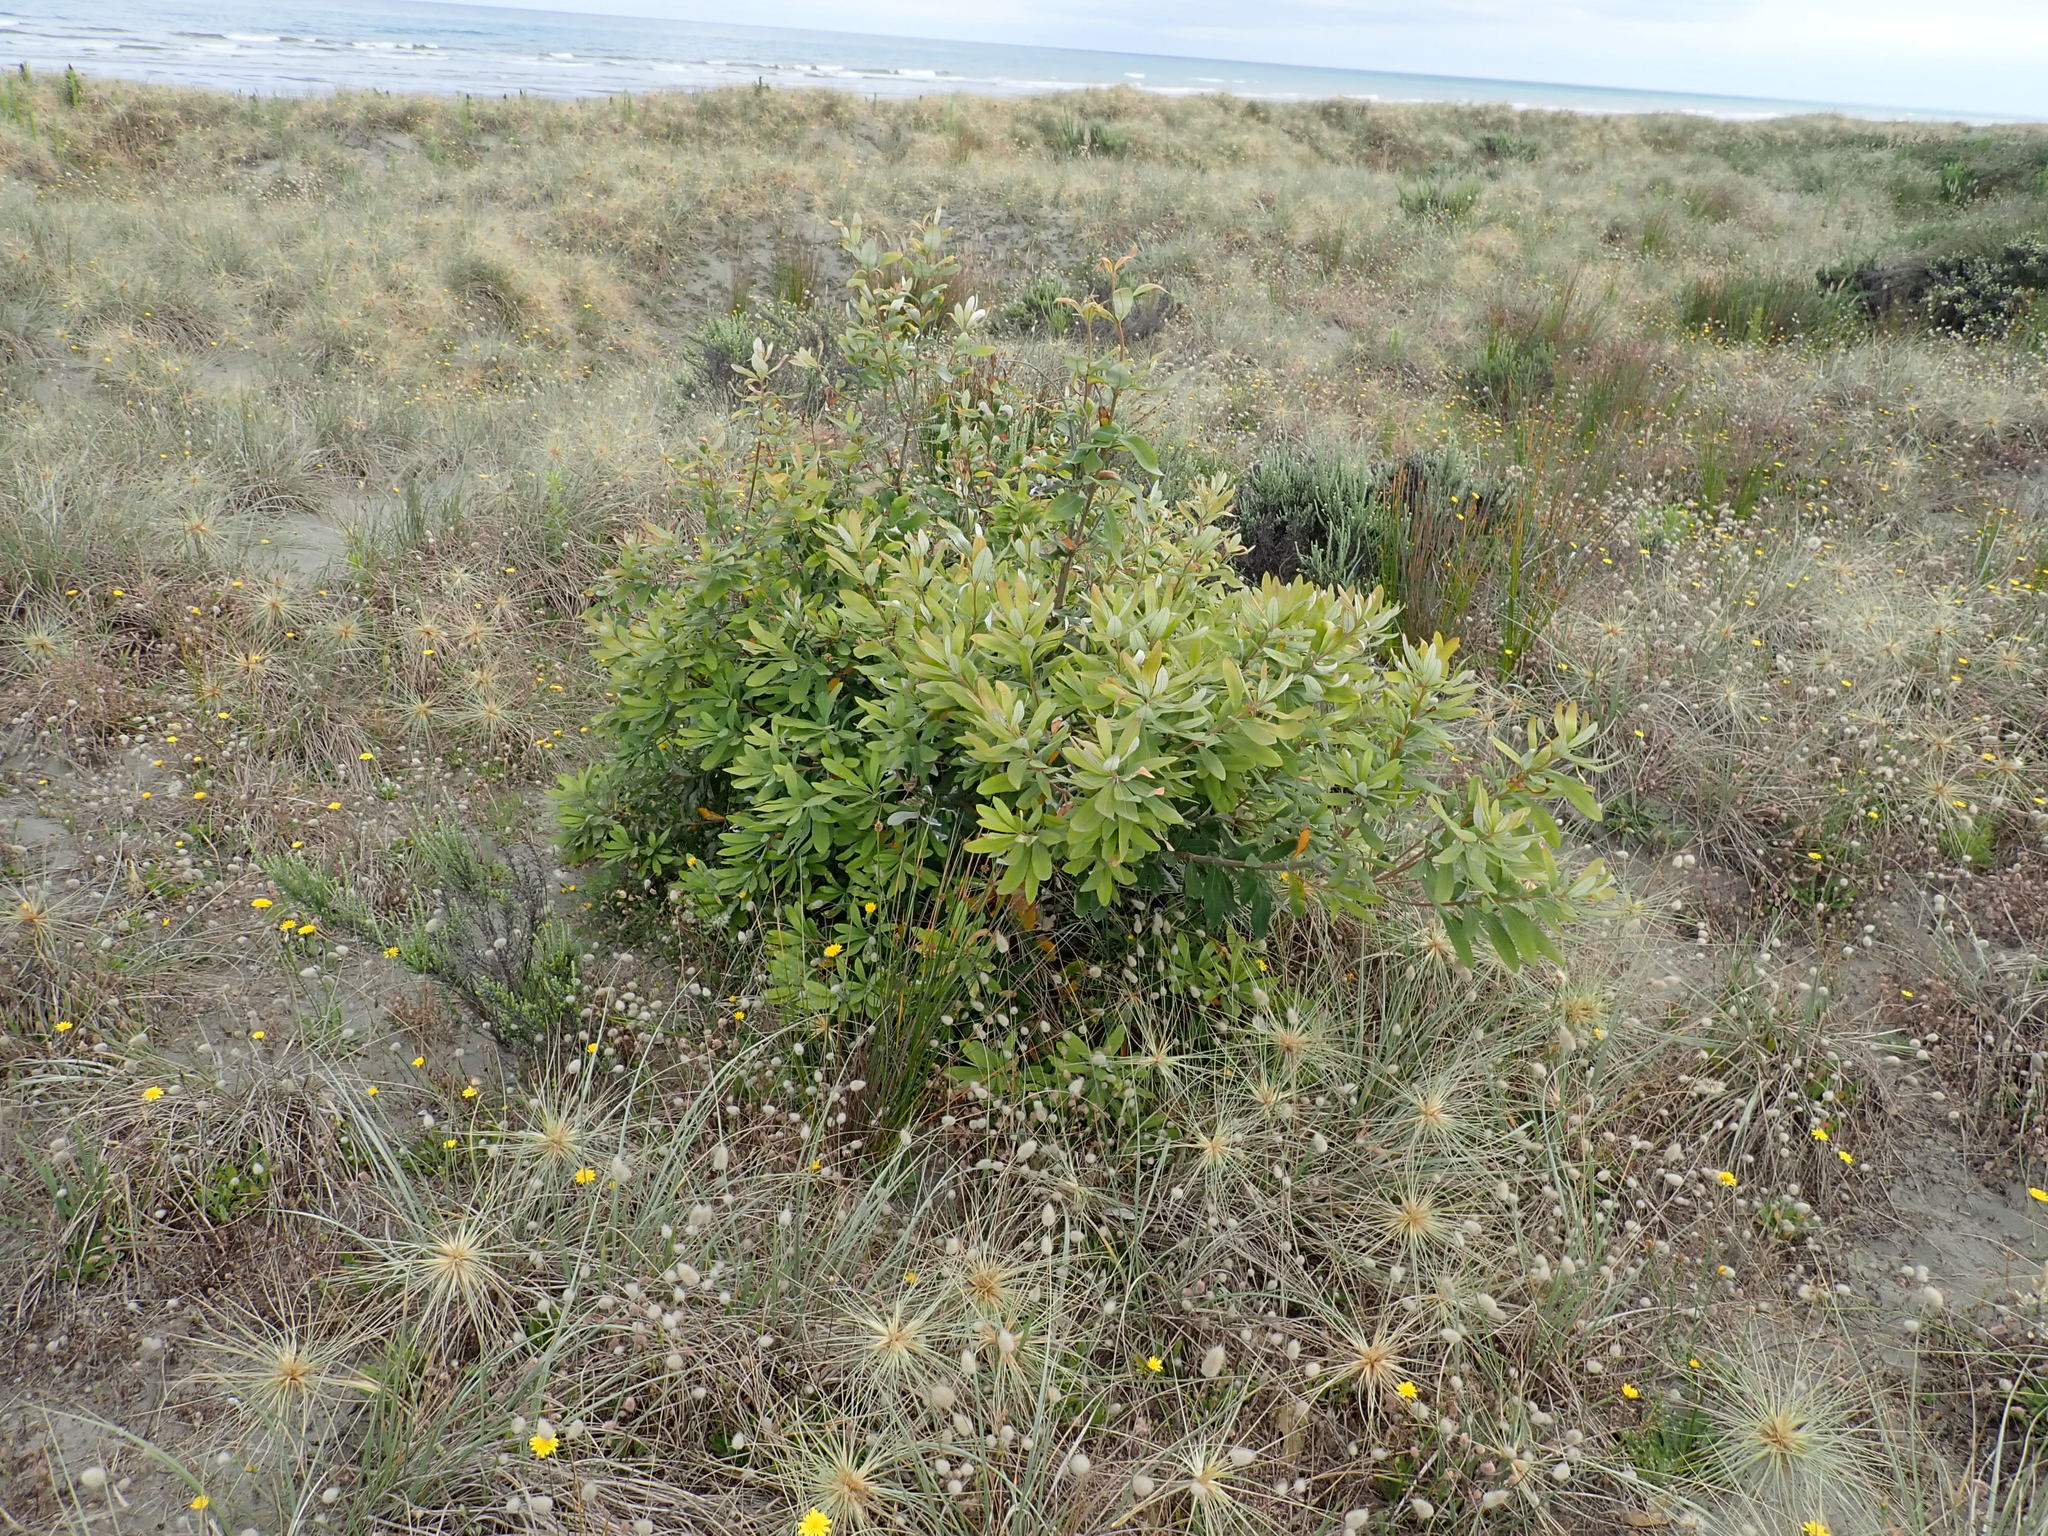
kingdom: Plantae
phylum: Tracheophyta
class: Magnoliopsida
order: Proteales
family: Proteaceae
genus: Banksia
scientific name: Banksia integrifolia
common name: White-honeysuckle
